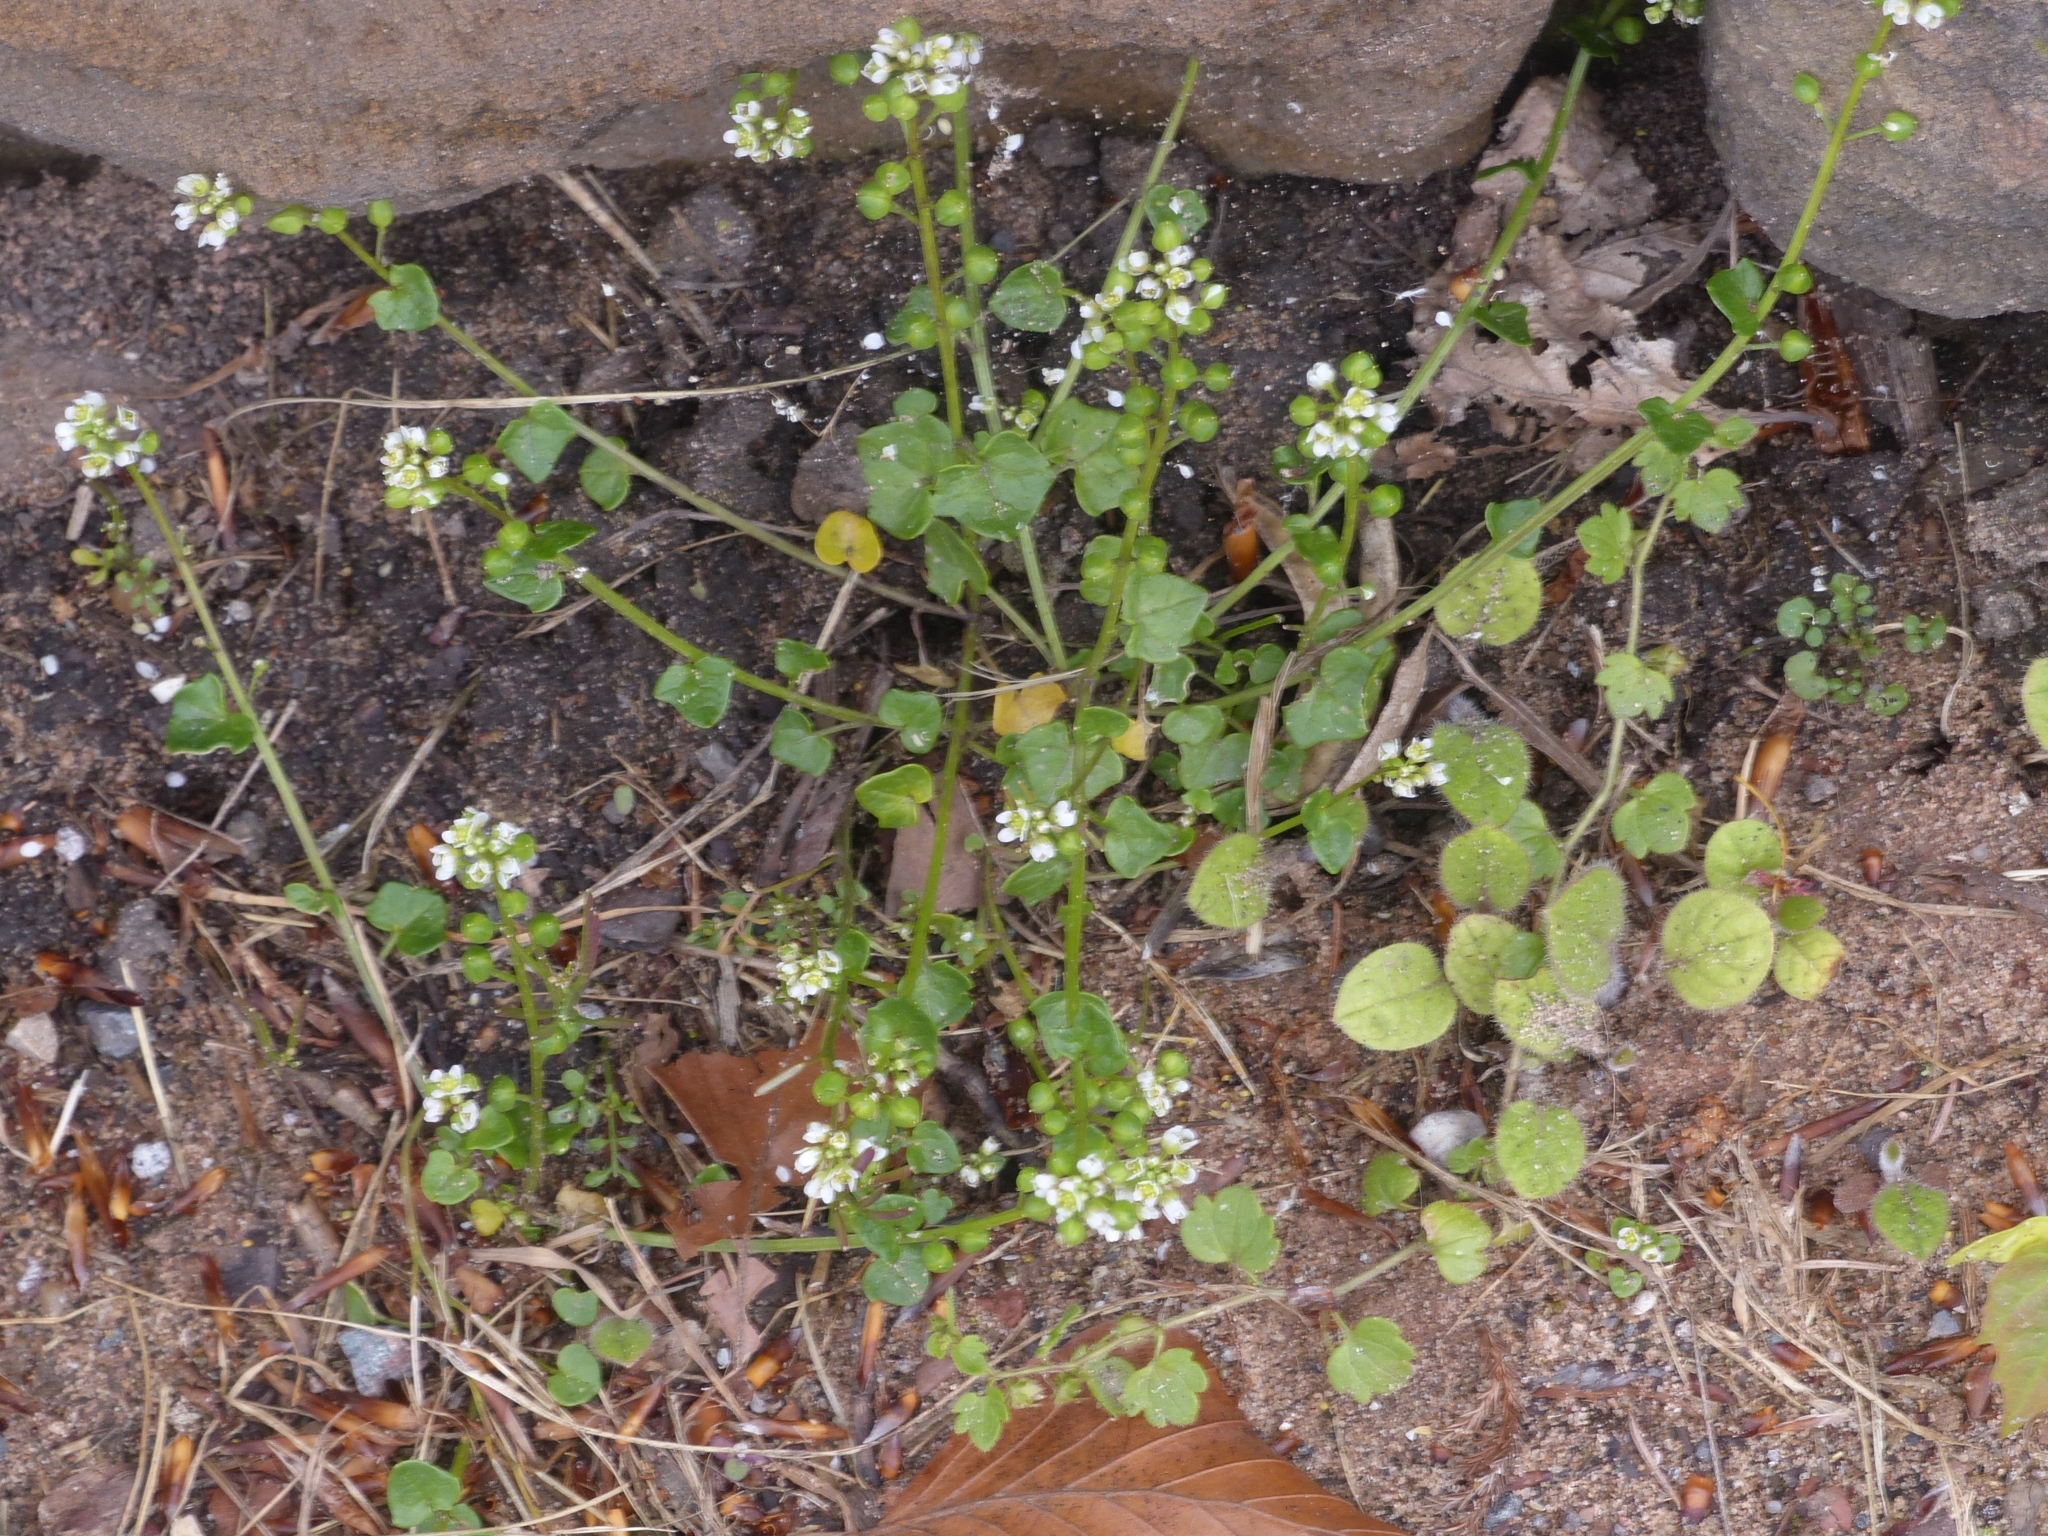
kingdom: Plantae
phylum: Tracheophyta
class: Magnoliopsida
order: Brassicales
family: Brassicaceae
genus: Cochlearia
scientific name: Cochlearia danica
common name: Early scurvygrass
